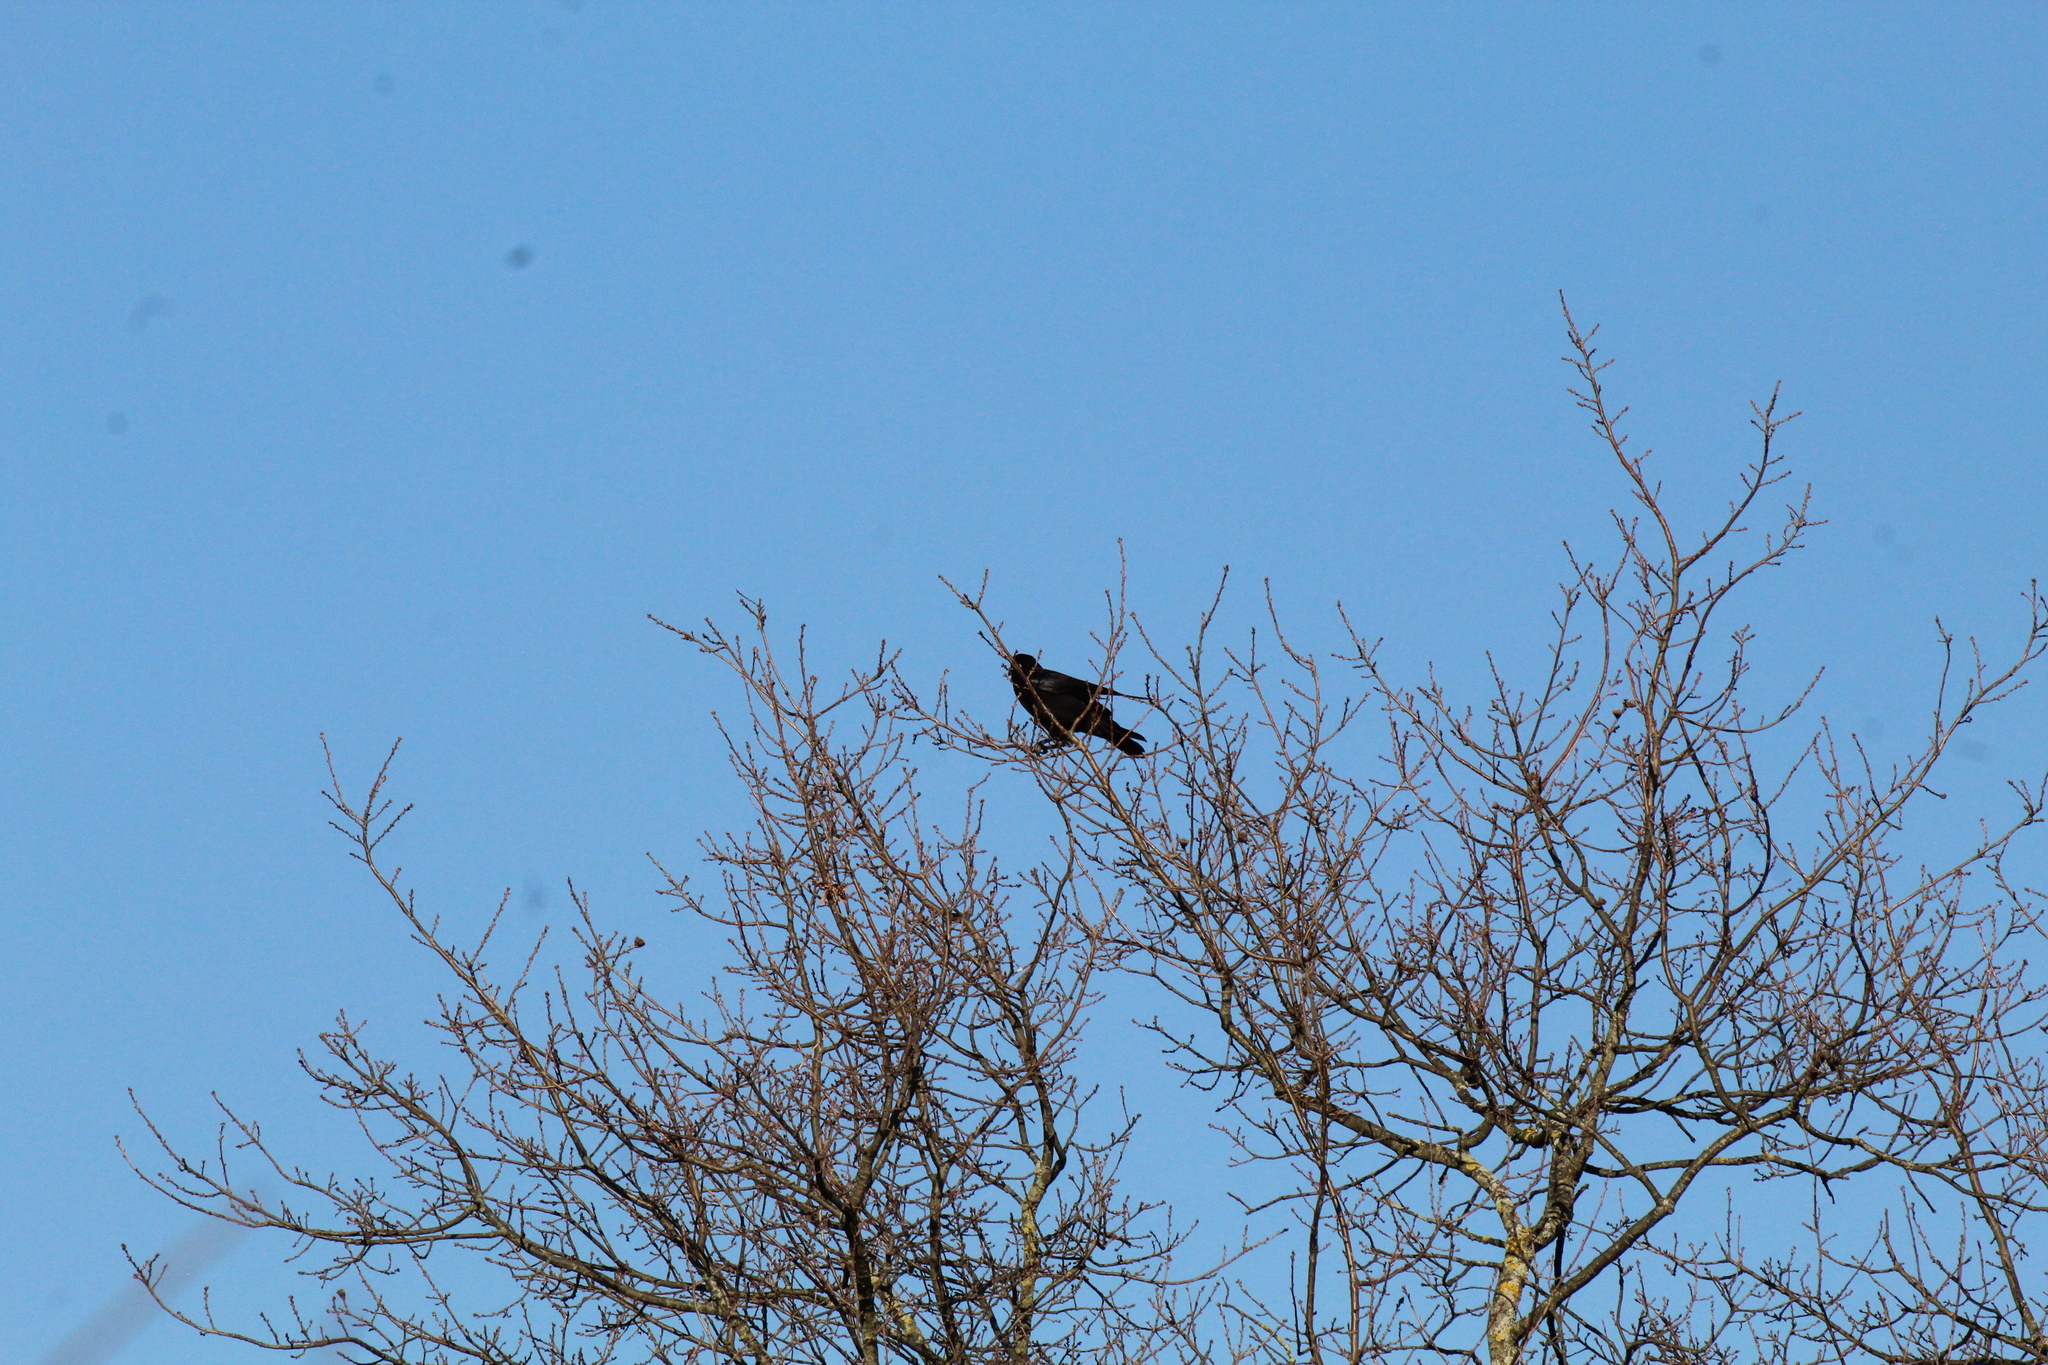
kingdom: Animalia
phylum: Chordata
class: Aves
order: Passeriformes
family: Corvidae
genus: Corvus
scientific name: Corvus corone
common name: Carrion crow
